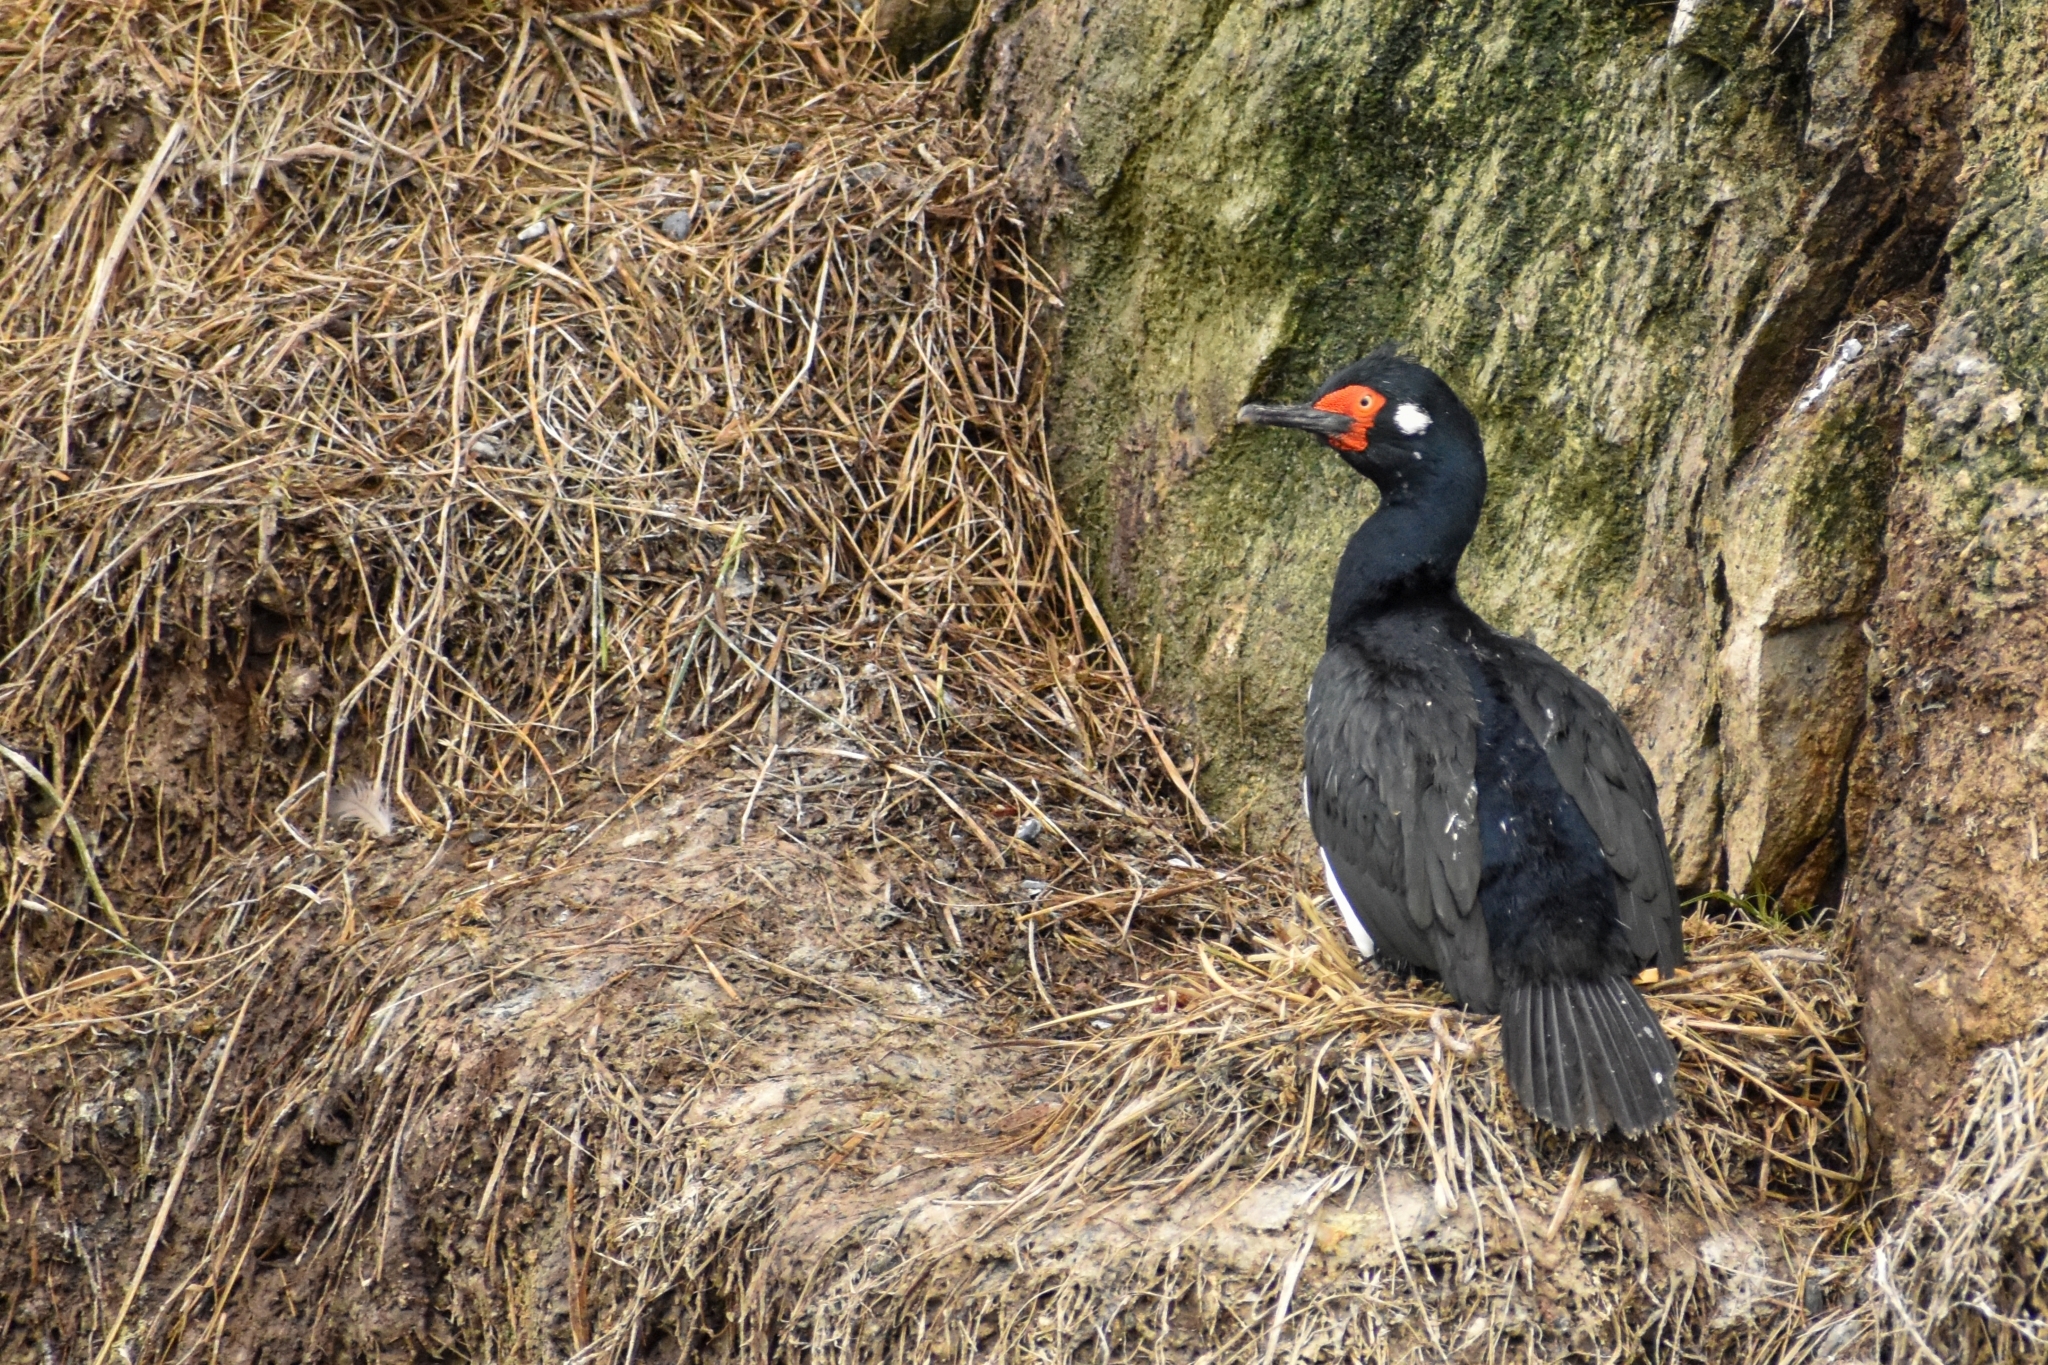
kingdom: Animalia
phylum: Chordata
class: Aves
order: Suliformes
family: Phalacrocoracidae
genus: Phalacrocorax
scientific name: Phalacrocorax magellanicus
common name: Rock shag
